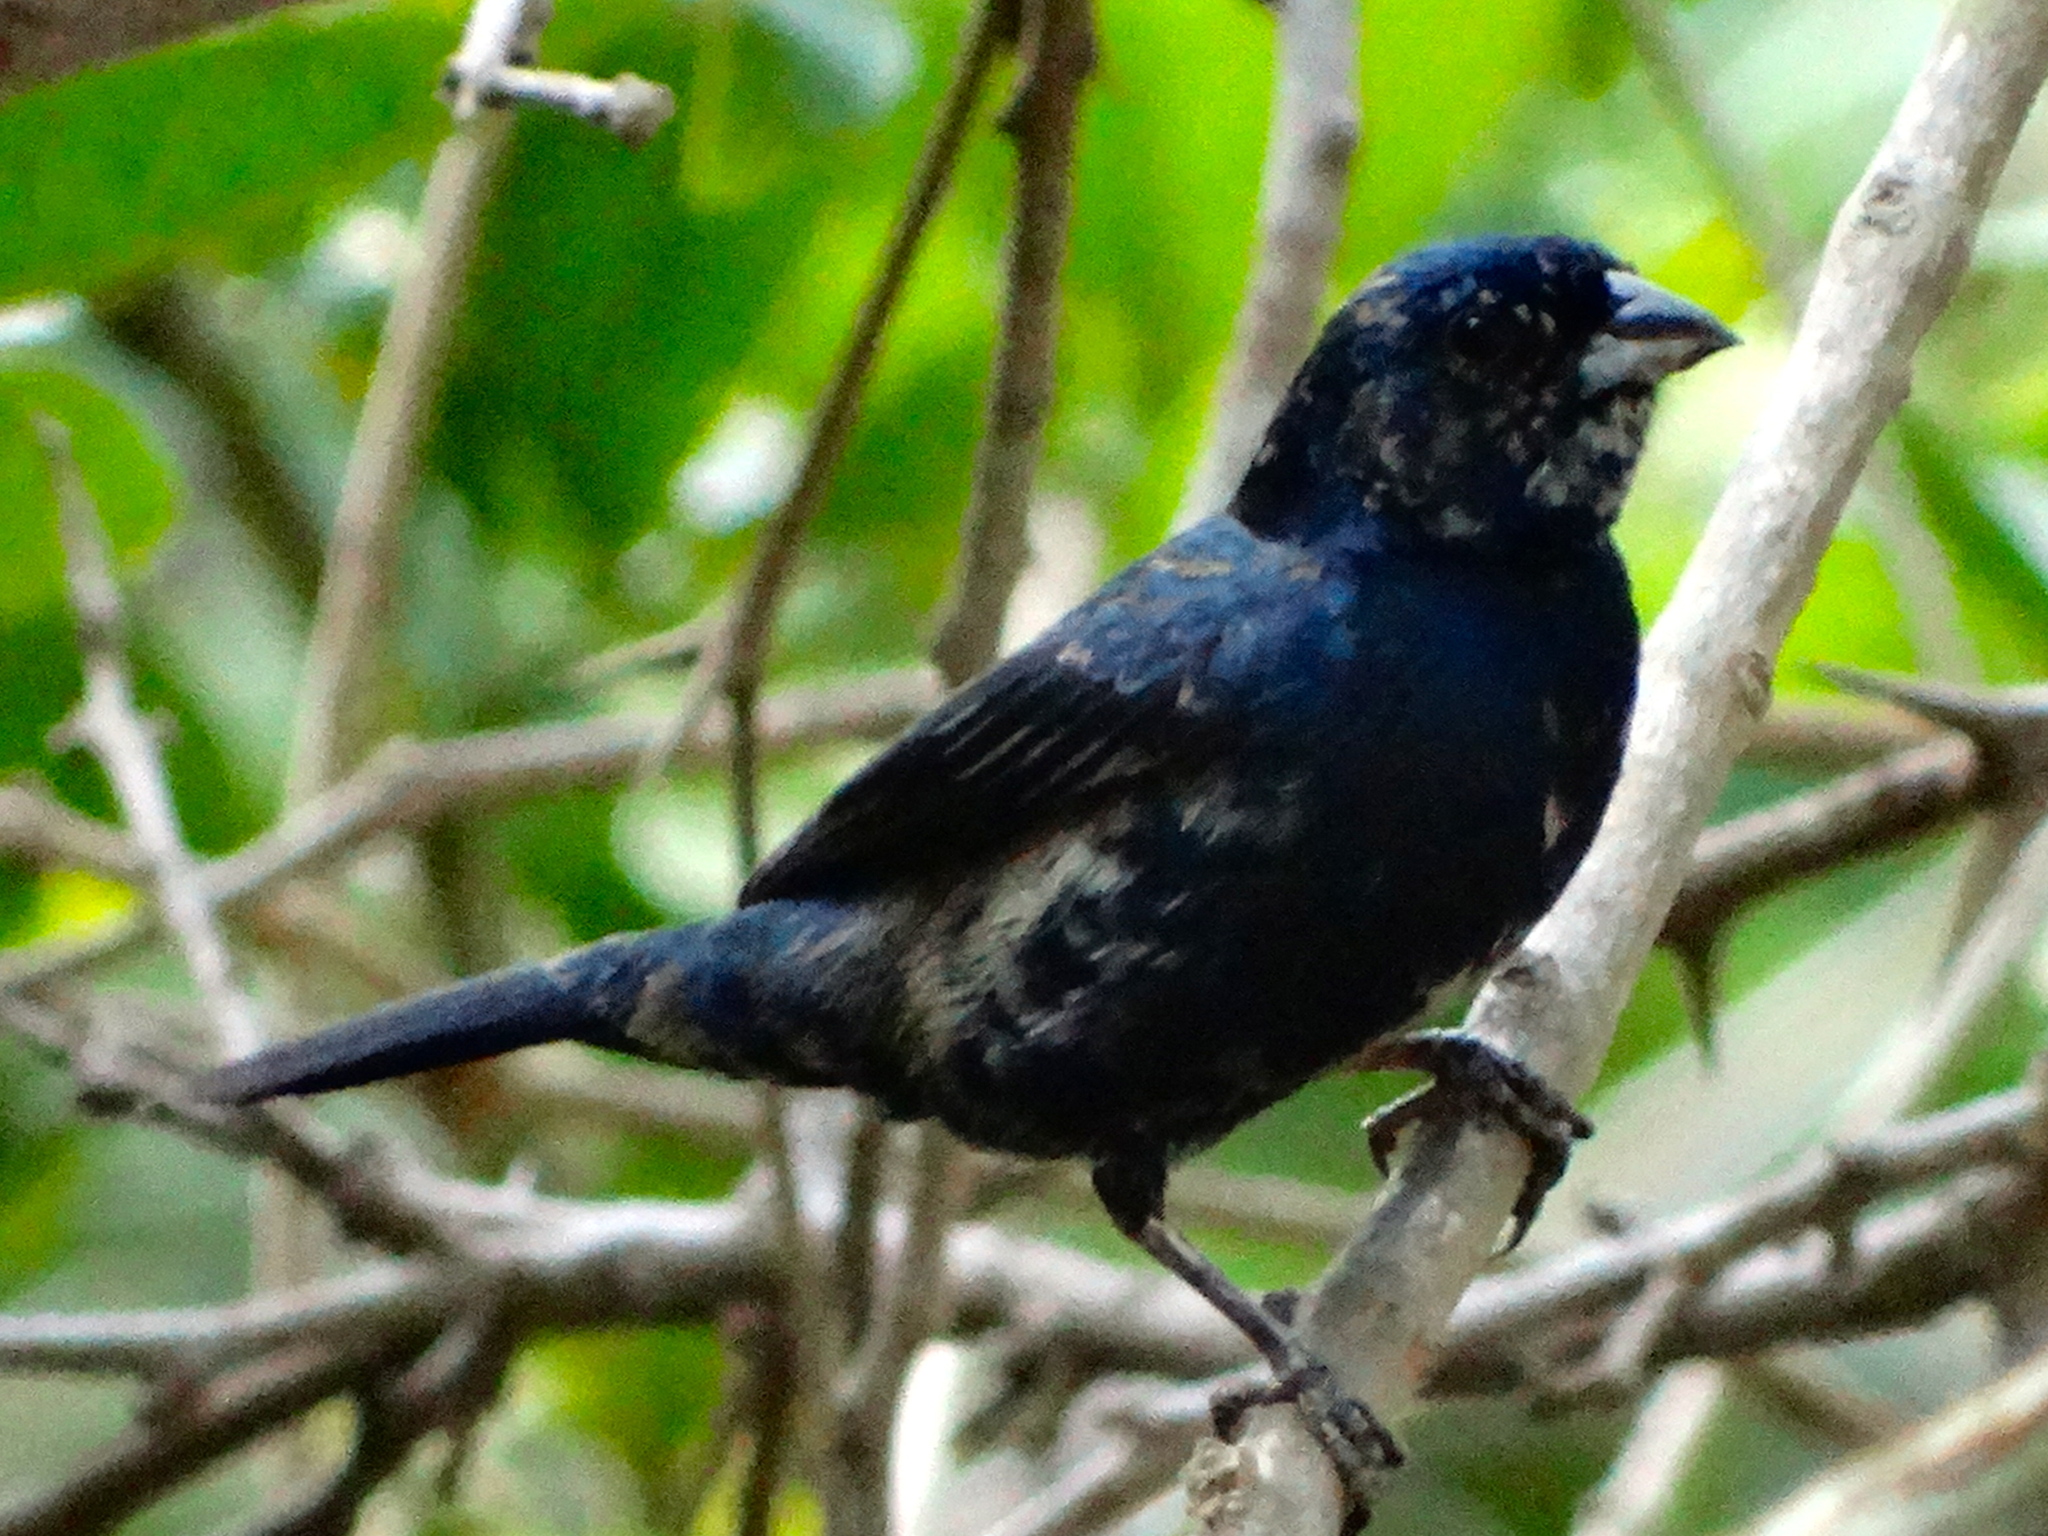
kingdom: Animalia
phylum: Chordata
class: Aves
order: Passeriformes
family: Thraupidae
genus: Volatinia
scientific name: Volatinia jacarina
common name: Blue-black grassquit
